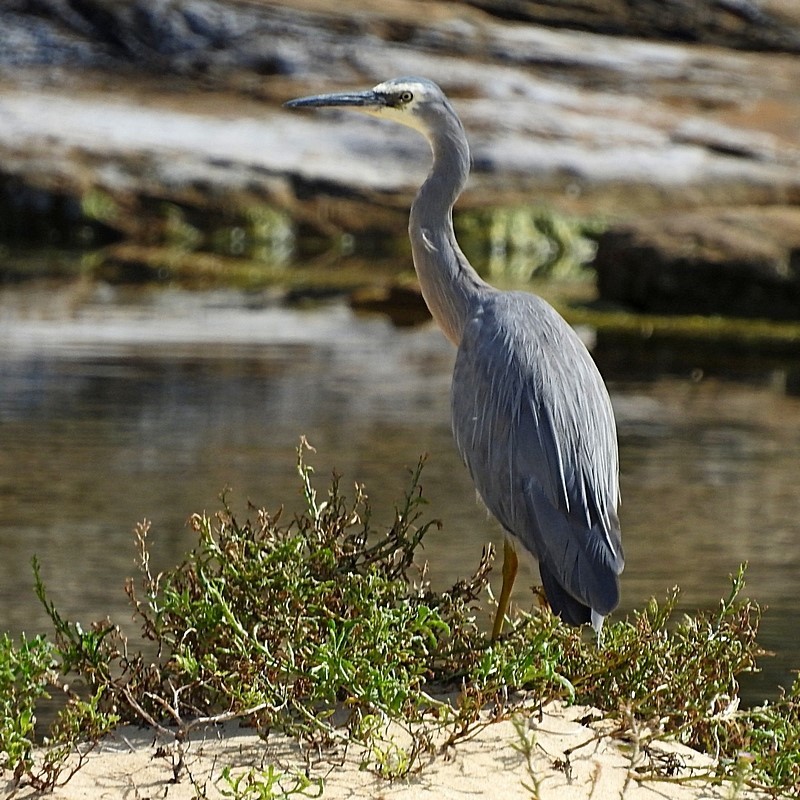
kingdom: Animalia
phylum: Chordata
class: Aves
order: Pelecaniformes
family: Ardeidae
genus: Egretta
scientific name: Egretta novaehollandiae
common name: White-faced heron
